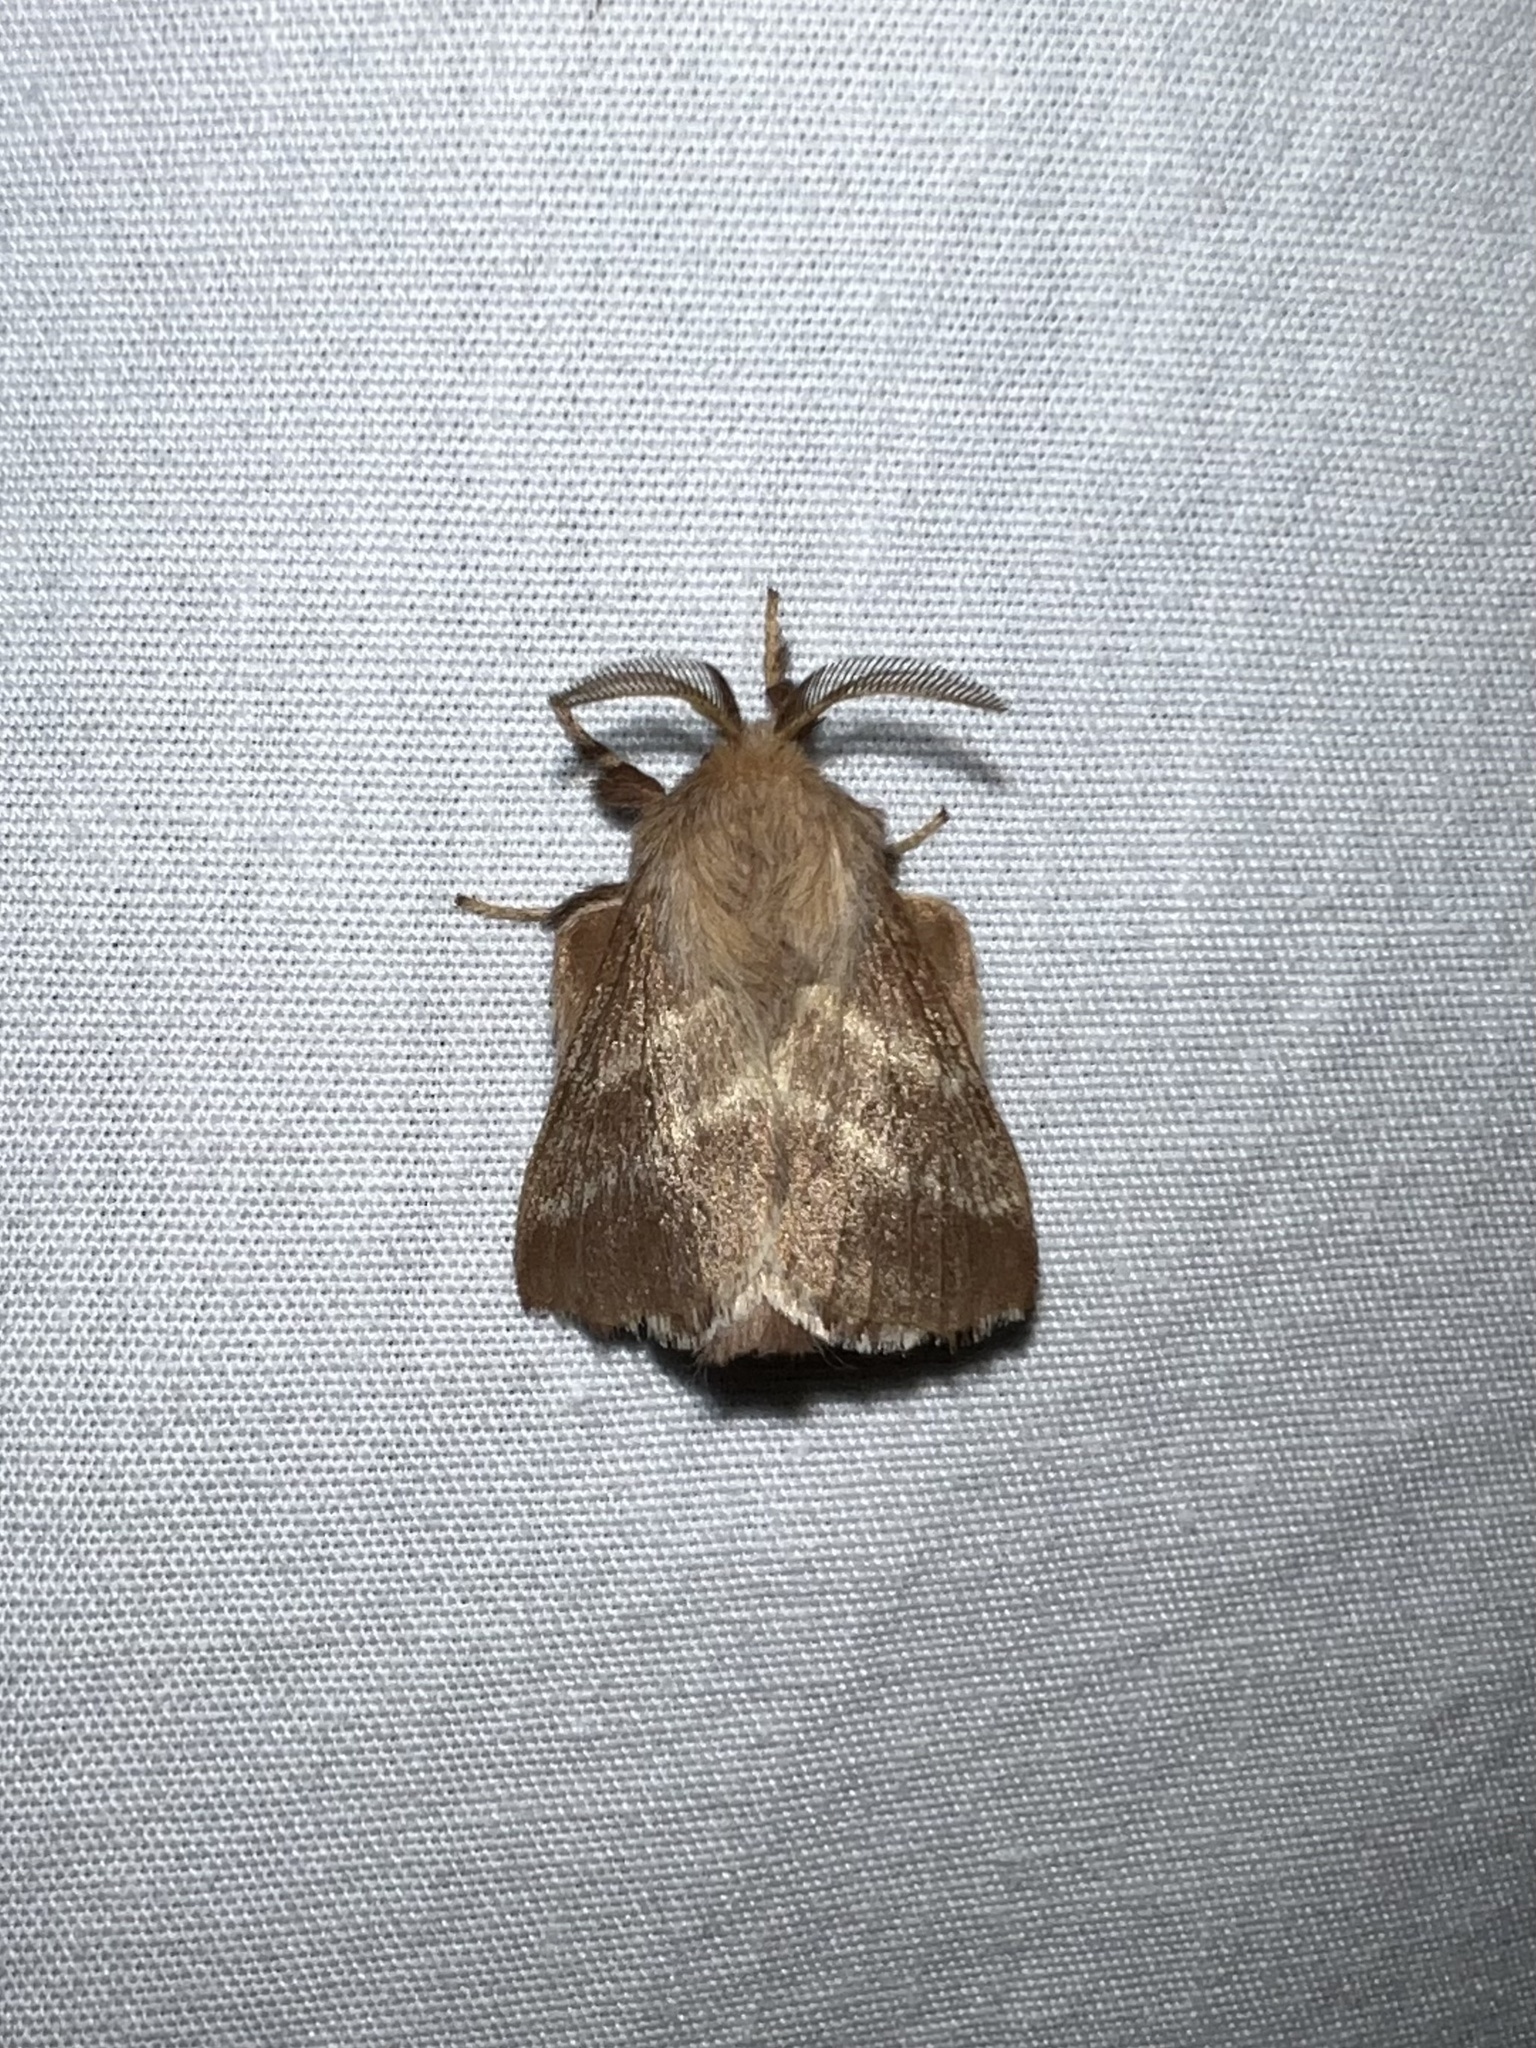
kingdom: Animalia
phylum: Arthropoda
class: Insecta
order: Lepidoptera
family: Lasiocampidae
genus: Malacosoma
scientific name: Malacosoma americana
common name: Eastern tent caterpillar moth
